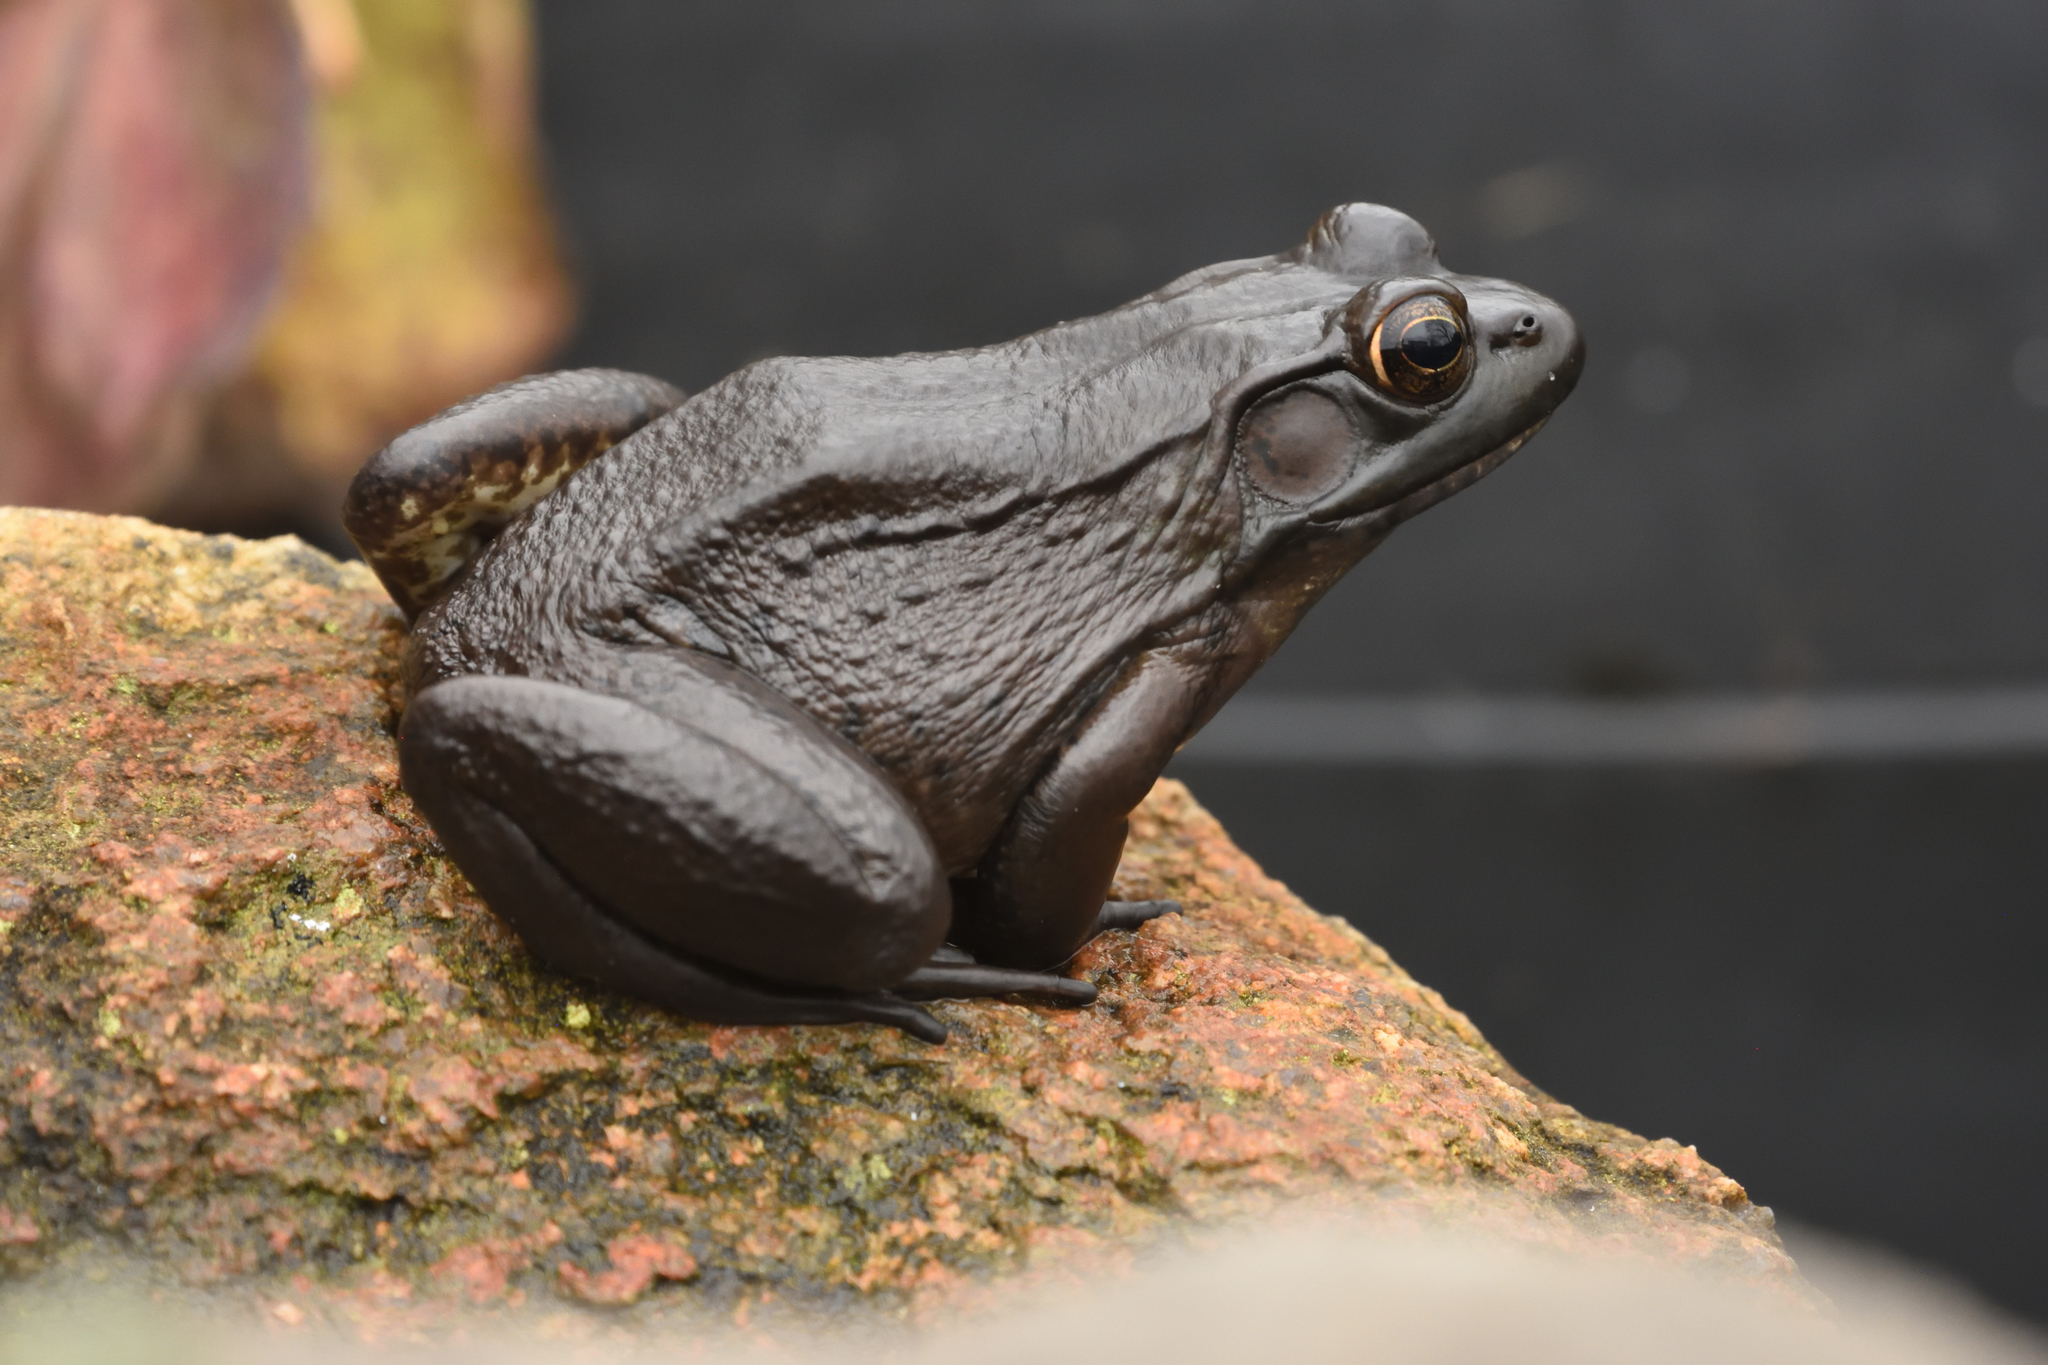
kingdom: Animalia
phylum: Chordata
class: Amphibia
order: Anura
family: Ranidae
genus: Lithobates
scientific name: Lithobates clamitans
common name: Green frog
